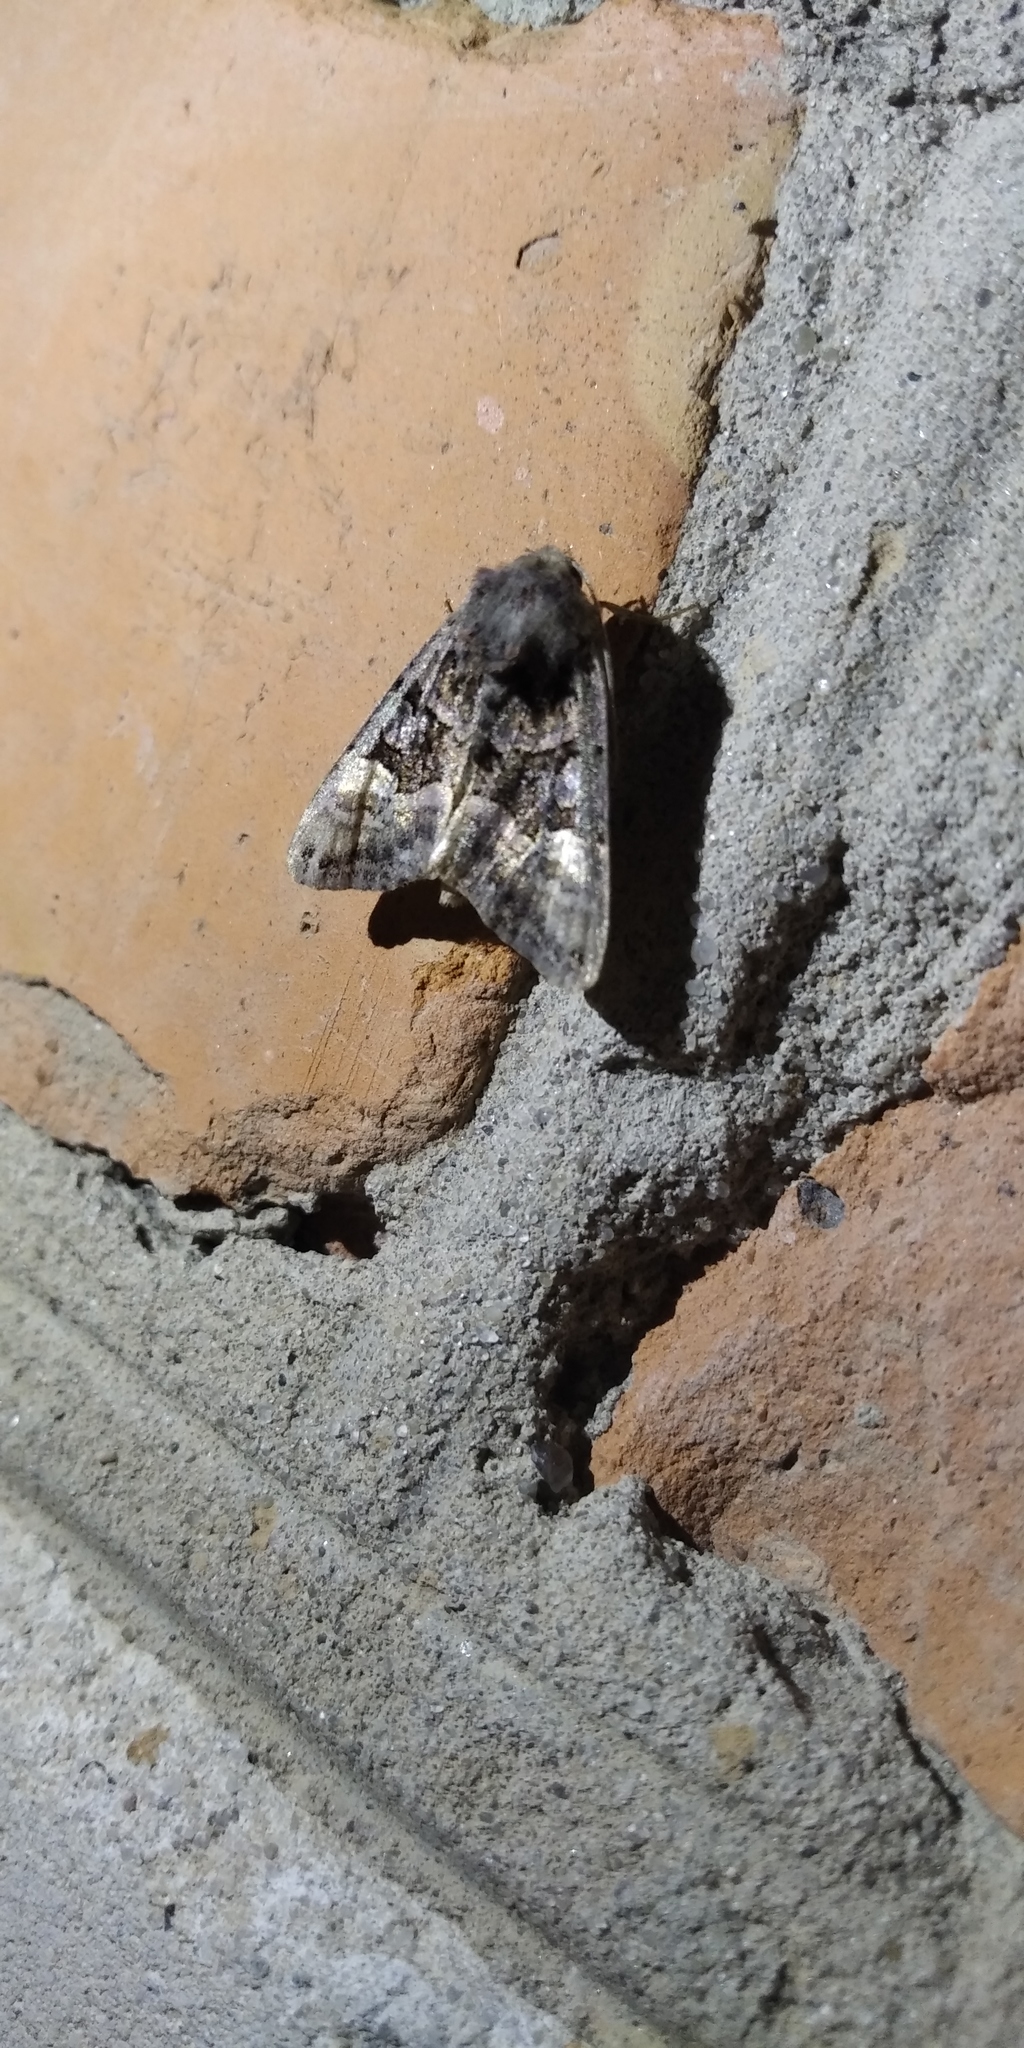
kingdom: Animalia
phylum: Arthropoda
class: Insecta
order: Lepidoptera
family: Noctuidae
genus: Euplexia
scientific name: Euplexia lucipara
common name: Small angle shades
